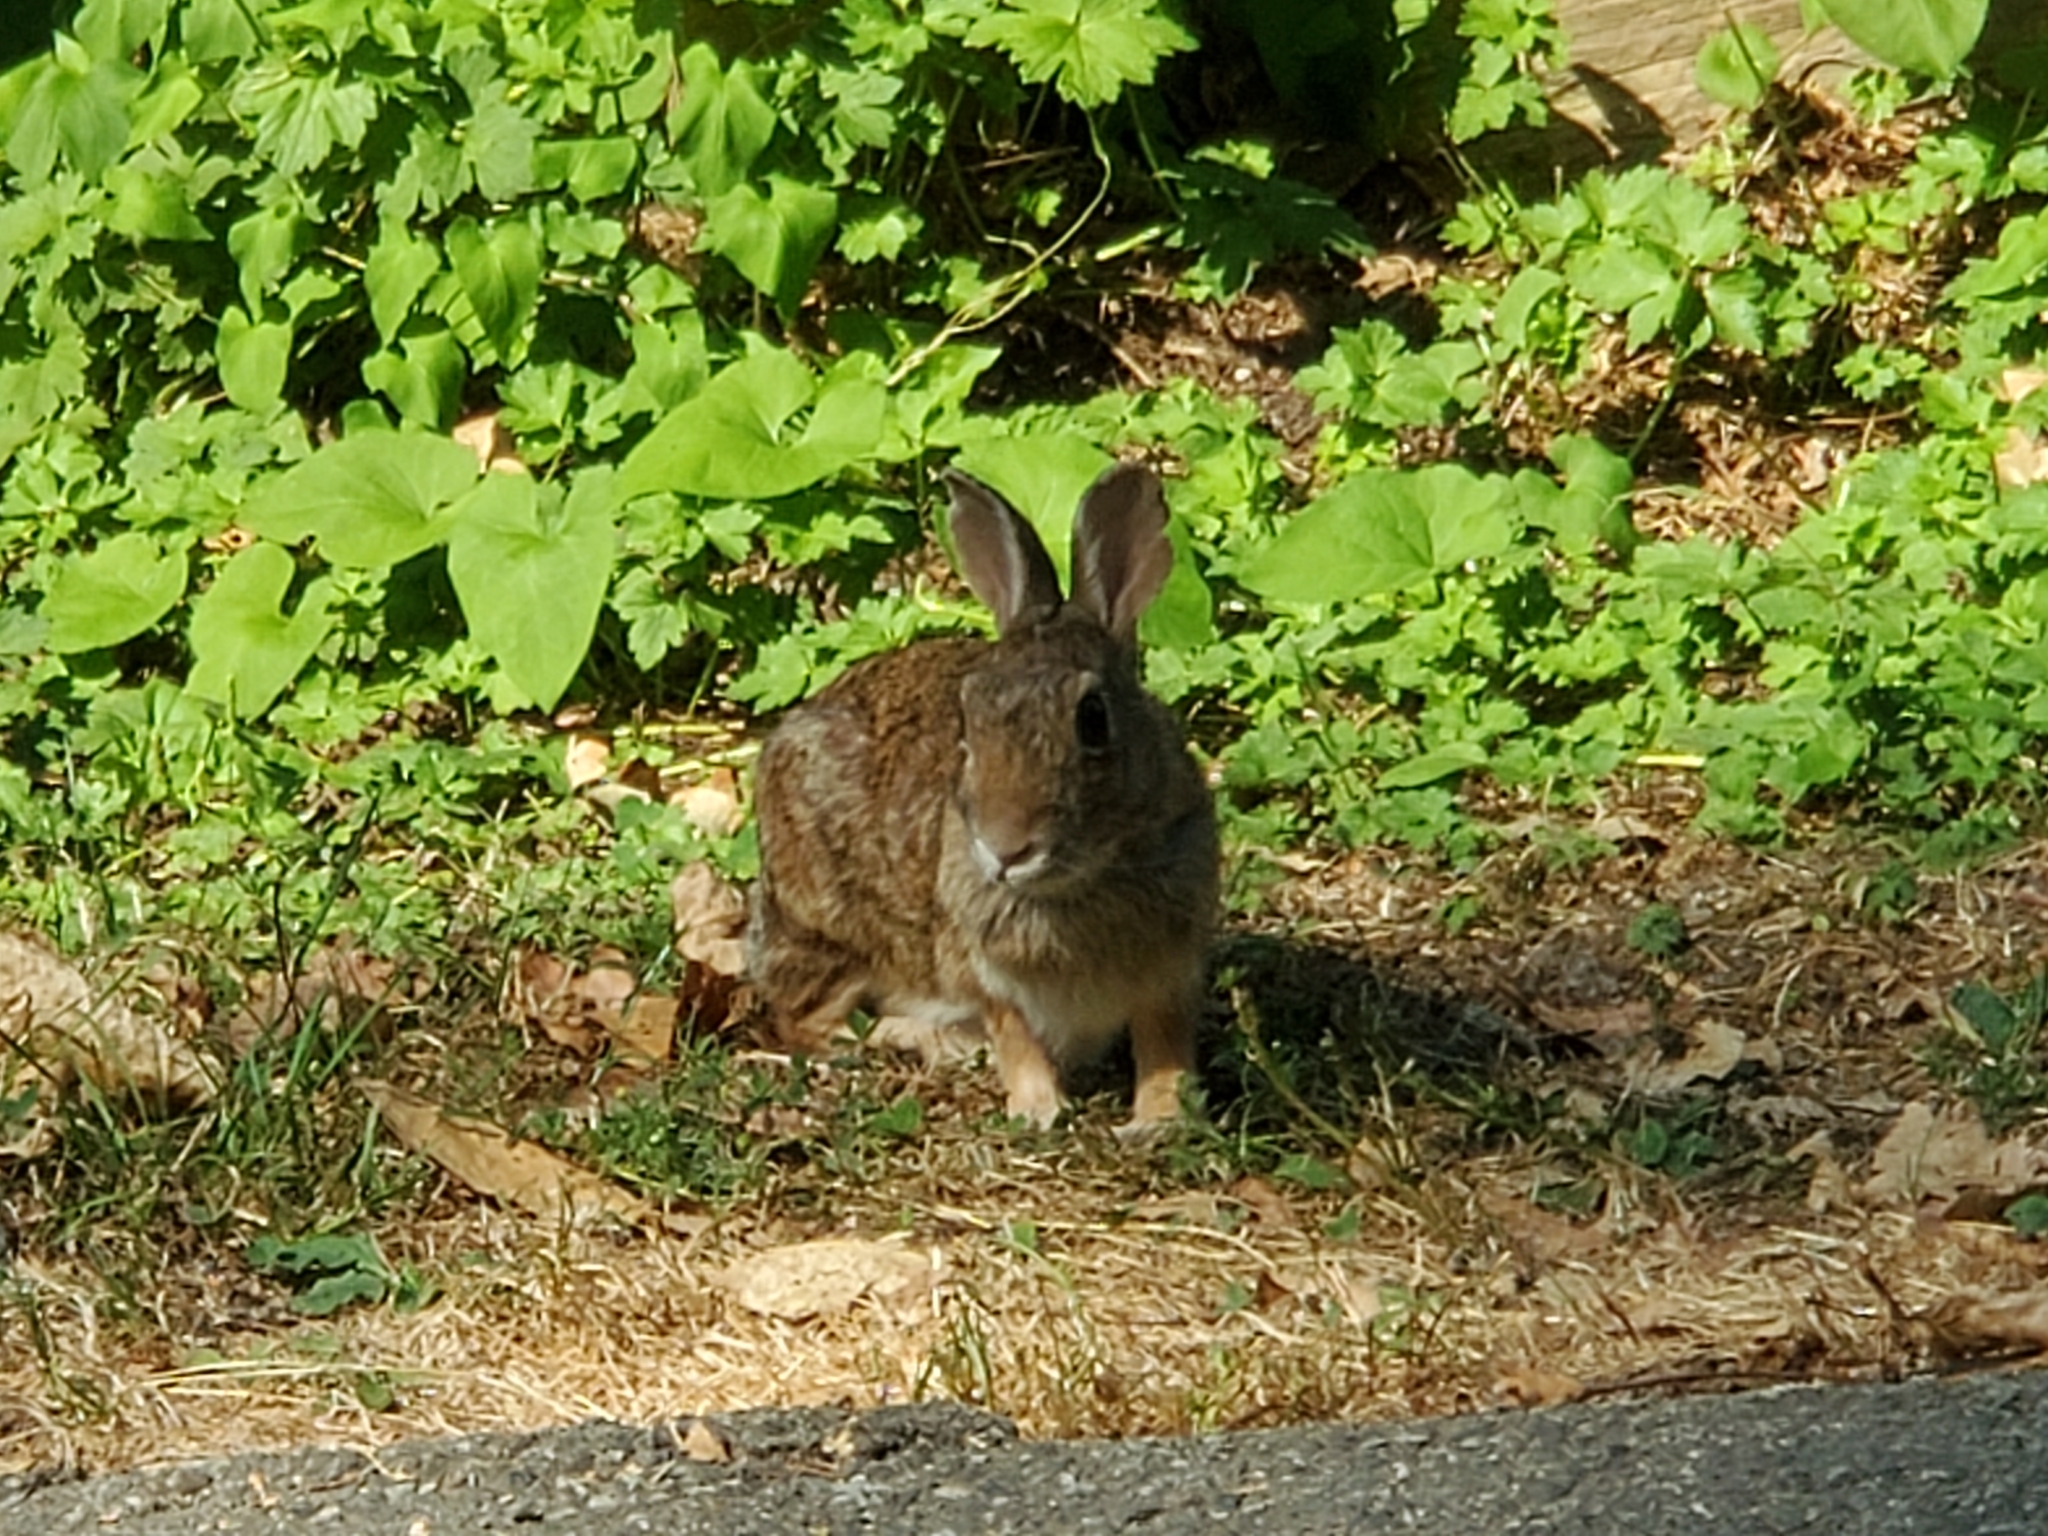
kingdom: Animalia
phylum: Chordata
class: Mammalia
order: Lagomorpha
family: Leporidae
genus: Sylvilagus
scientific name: Sylvilagus floridanus
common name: Eastern cottontail
